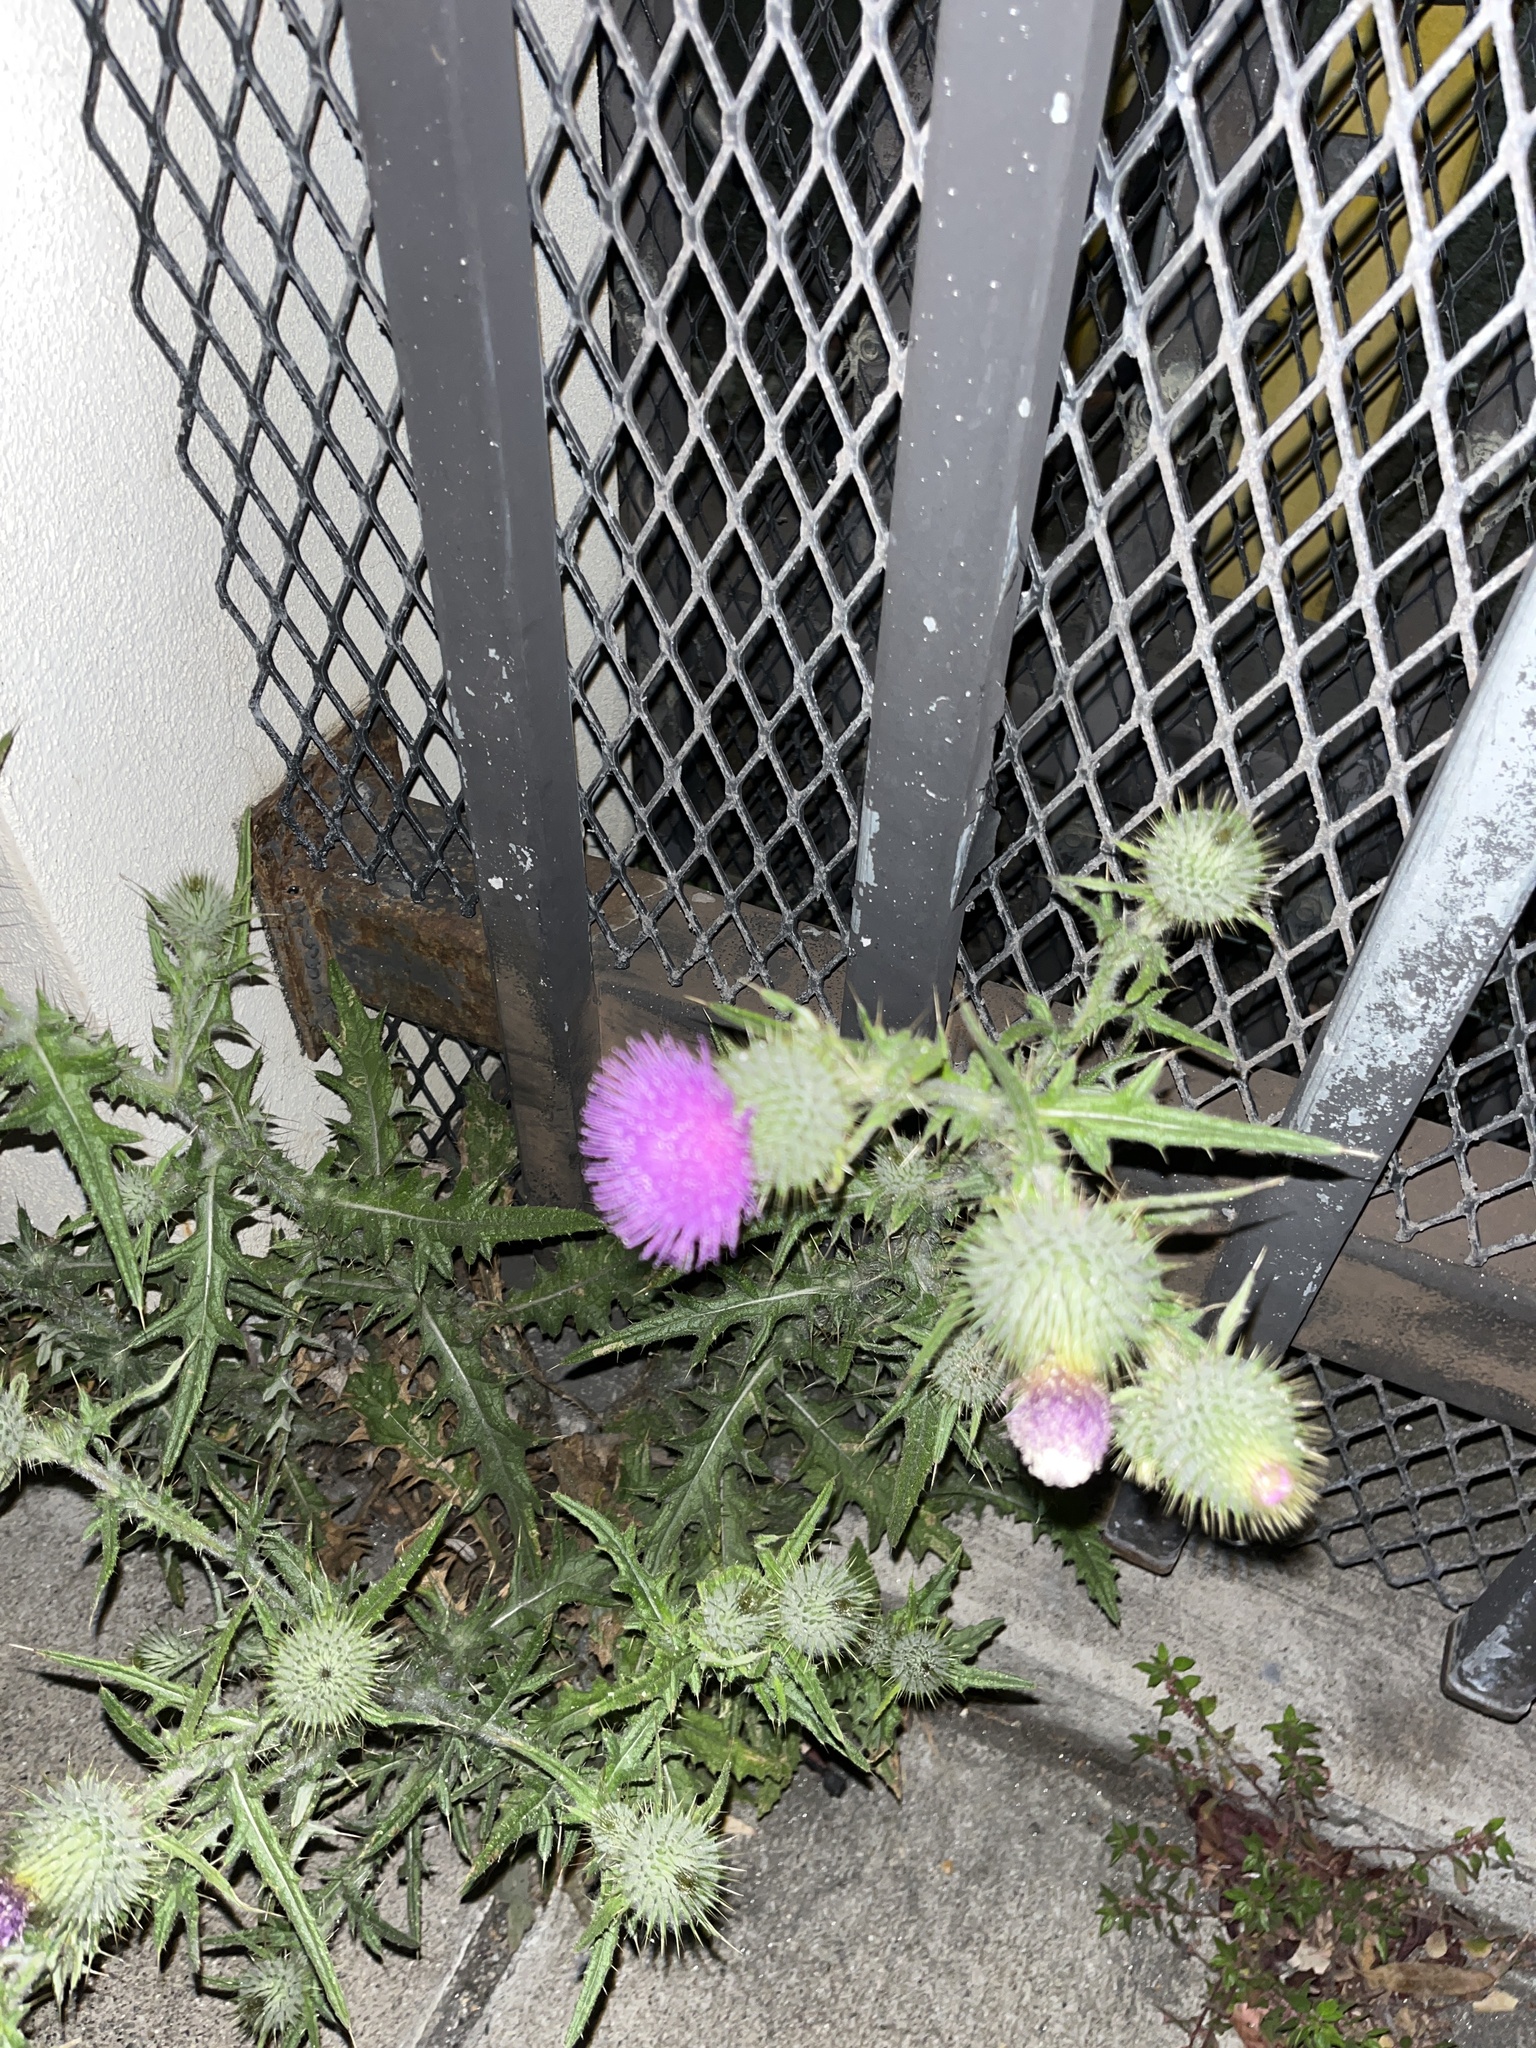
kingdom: Plantae
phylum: Tracheophyta
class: Magnoliopsida
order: Asterales
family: Asteraceae
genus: Cirsium
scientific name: Cirsium vulgare
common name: Bull thistle
